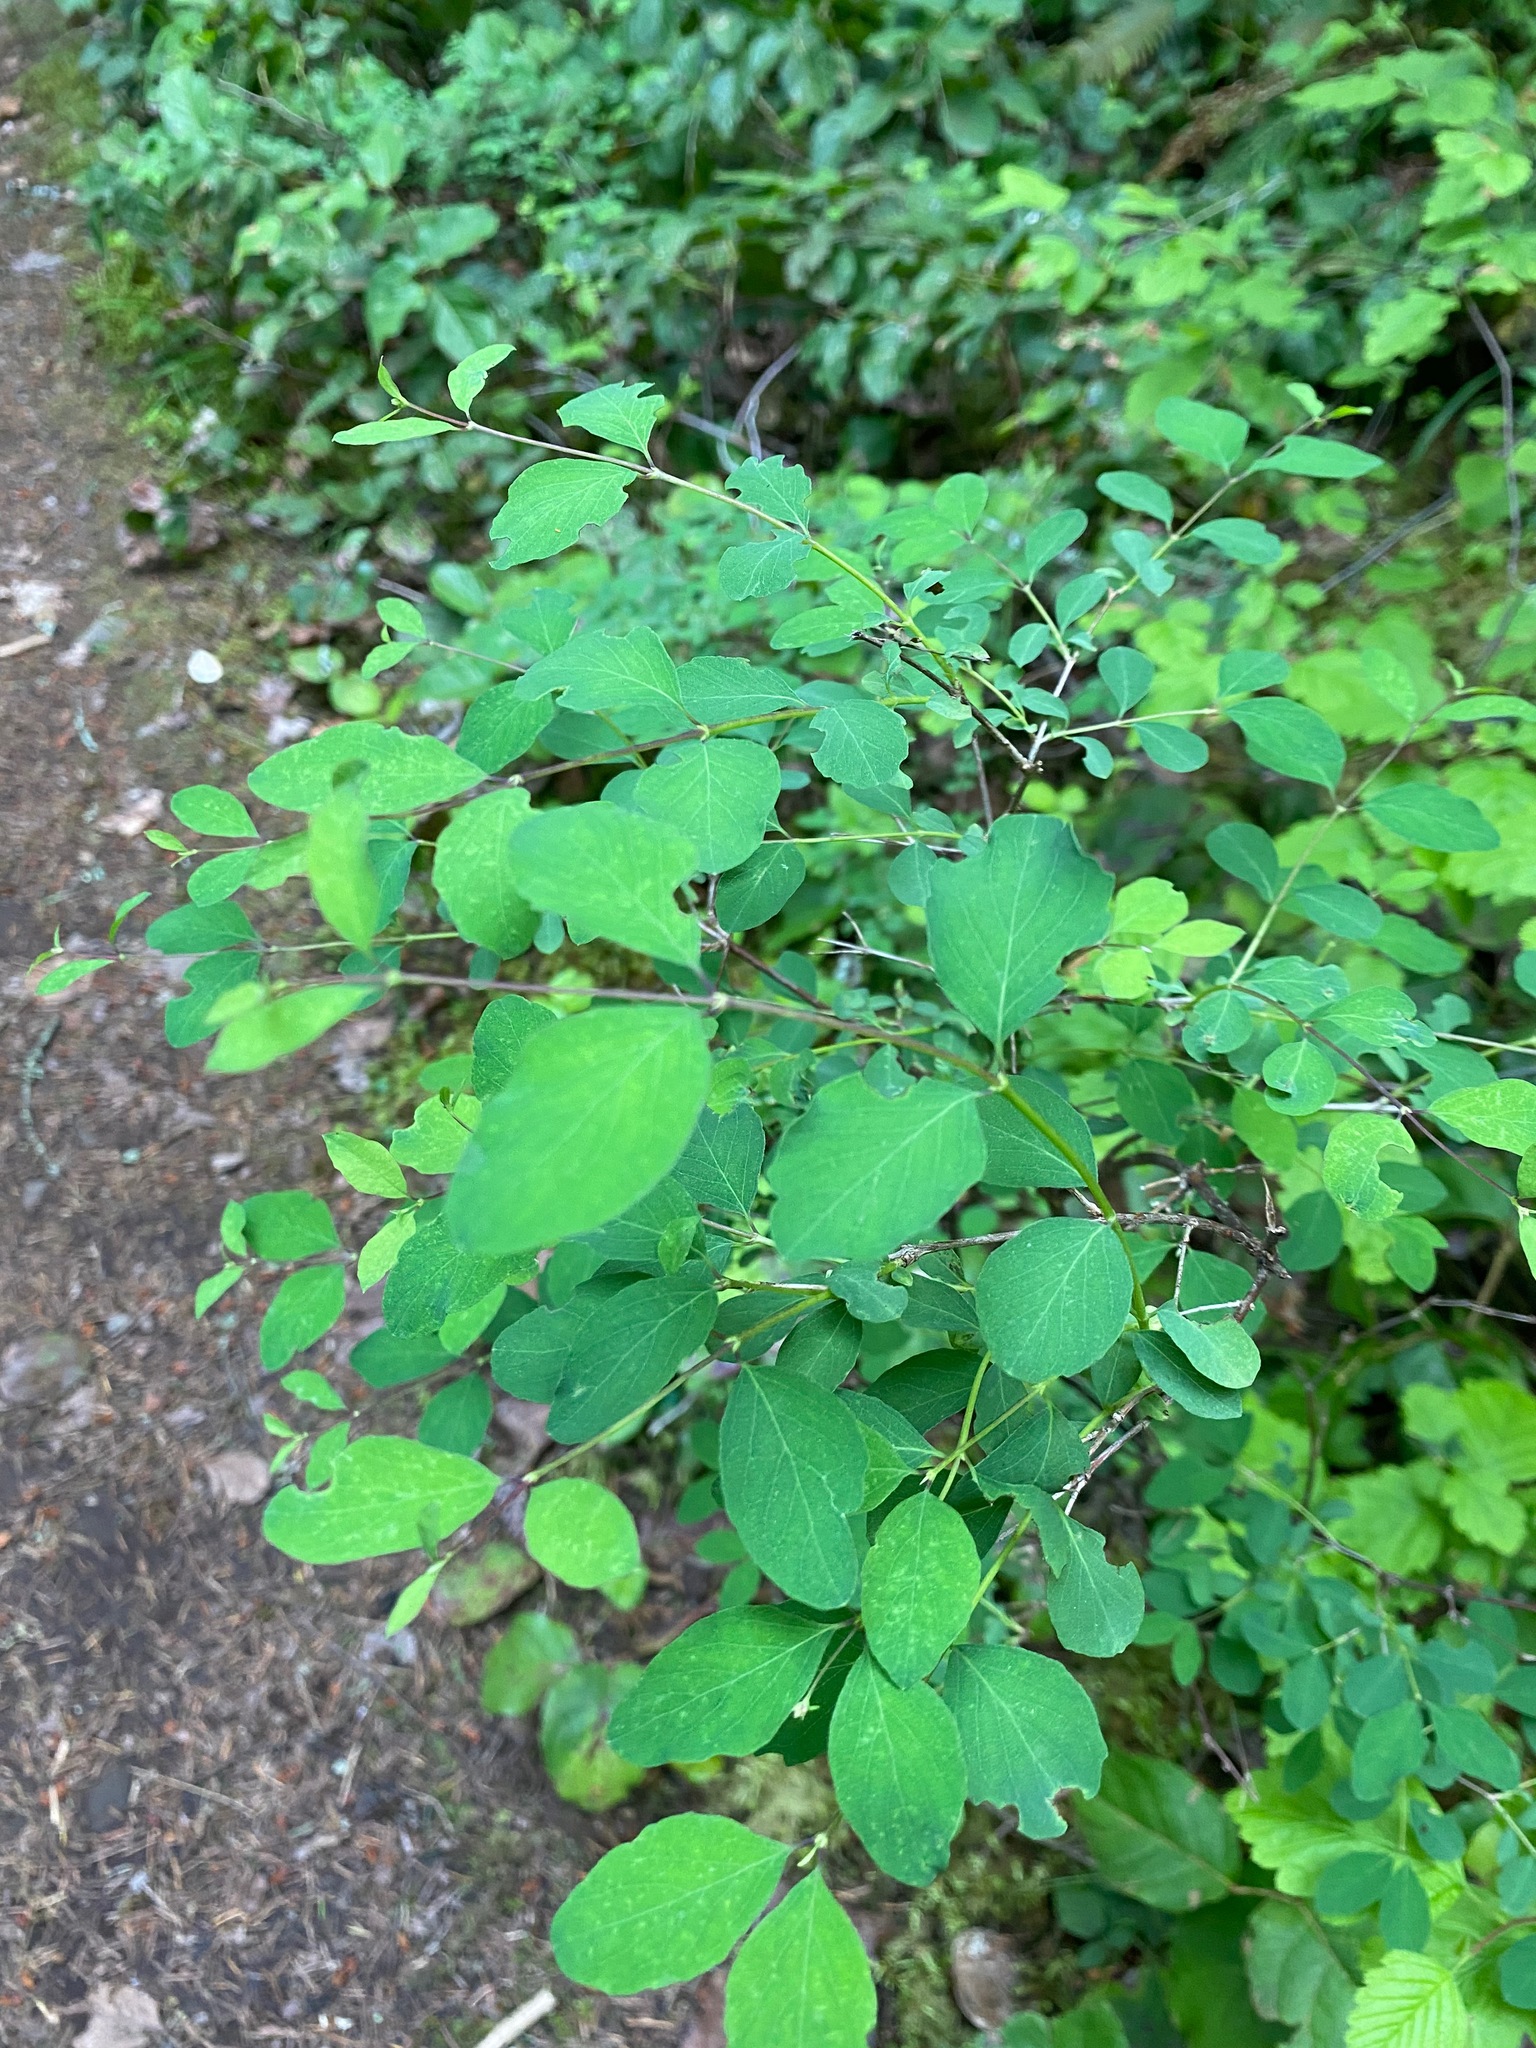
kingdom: Plantae
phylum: Tracheophyta
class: Magnoliopsida
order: Dipsacales
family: Caprifoliaceae
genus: Symphoricarpos
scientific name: Symphoricarpos albus
